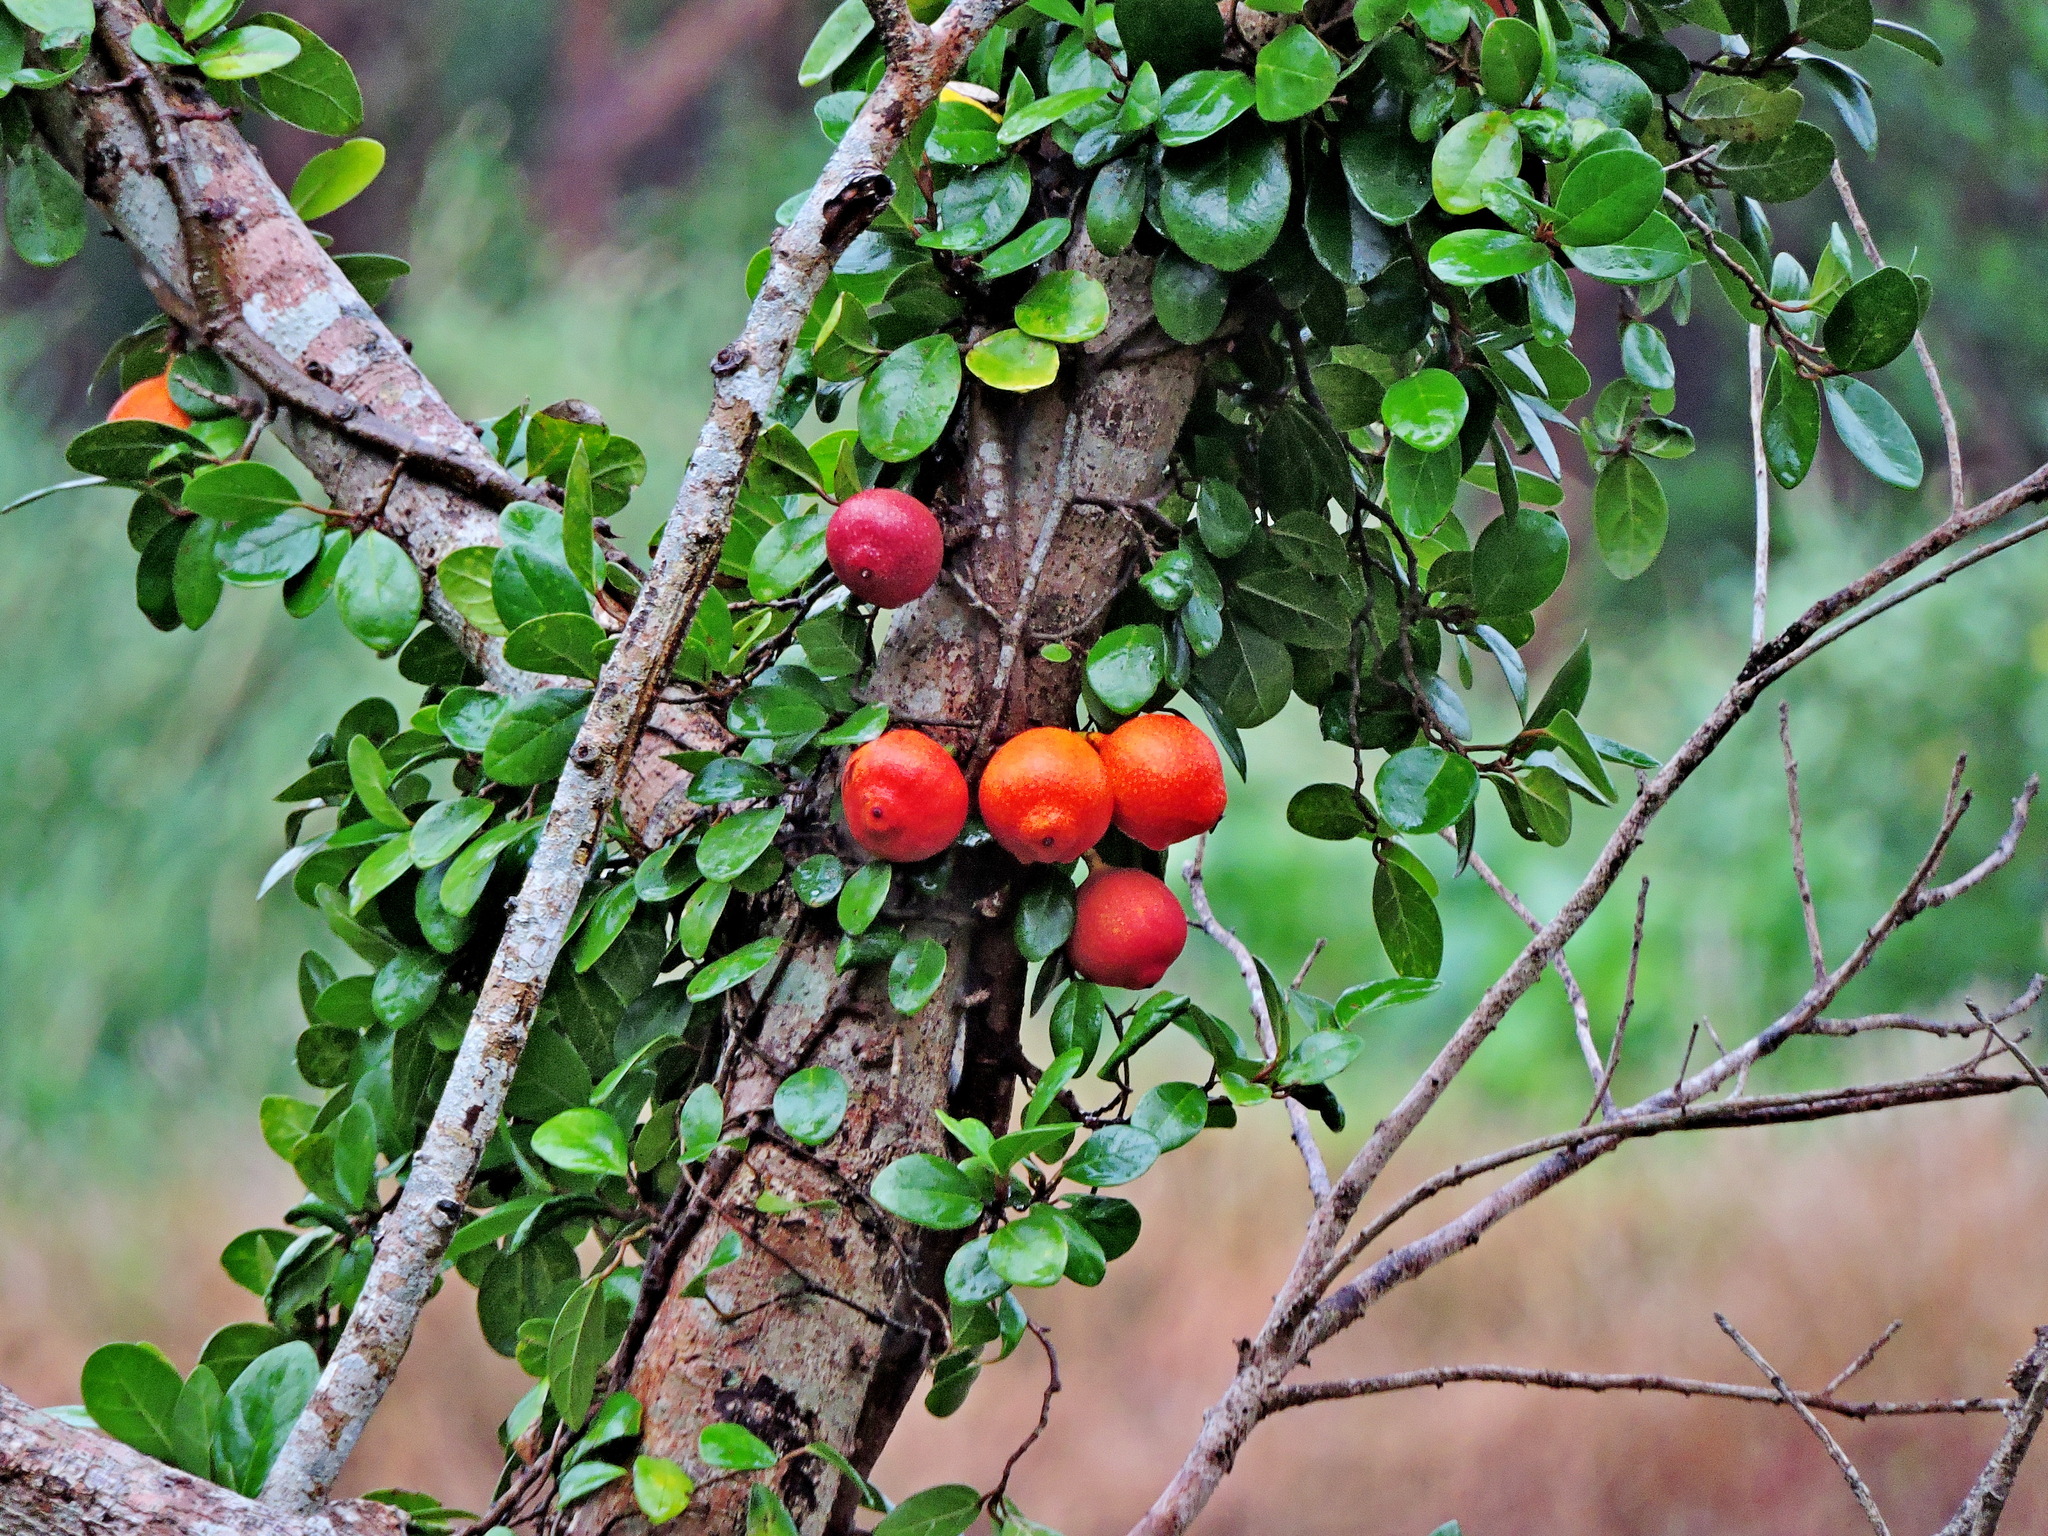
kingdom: Plantae
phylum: Tracheophyta
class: Magnoliopsida
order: Rosales
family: Moraceae
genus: Ficus
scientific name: Ficus punctata
